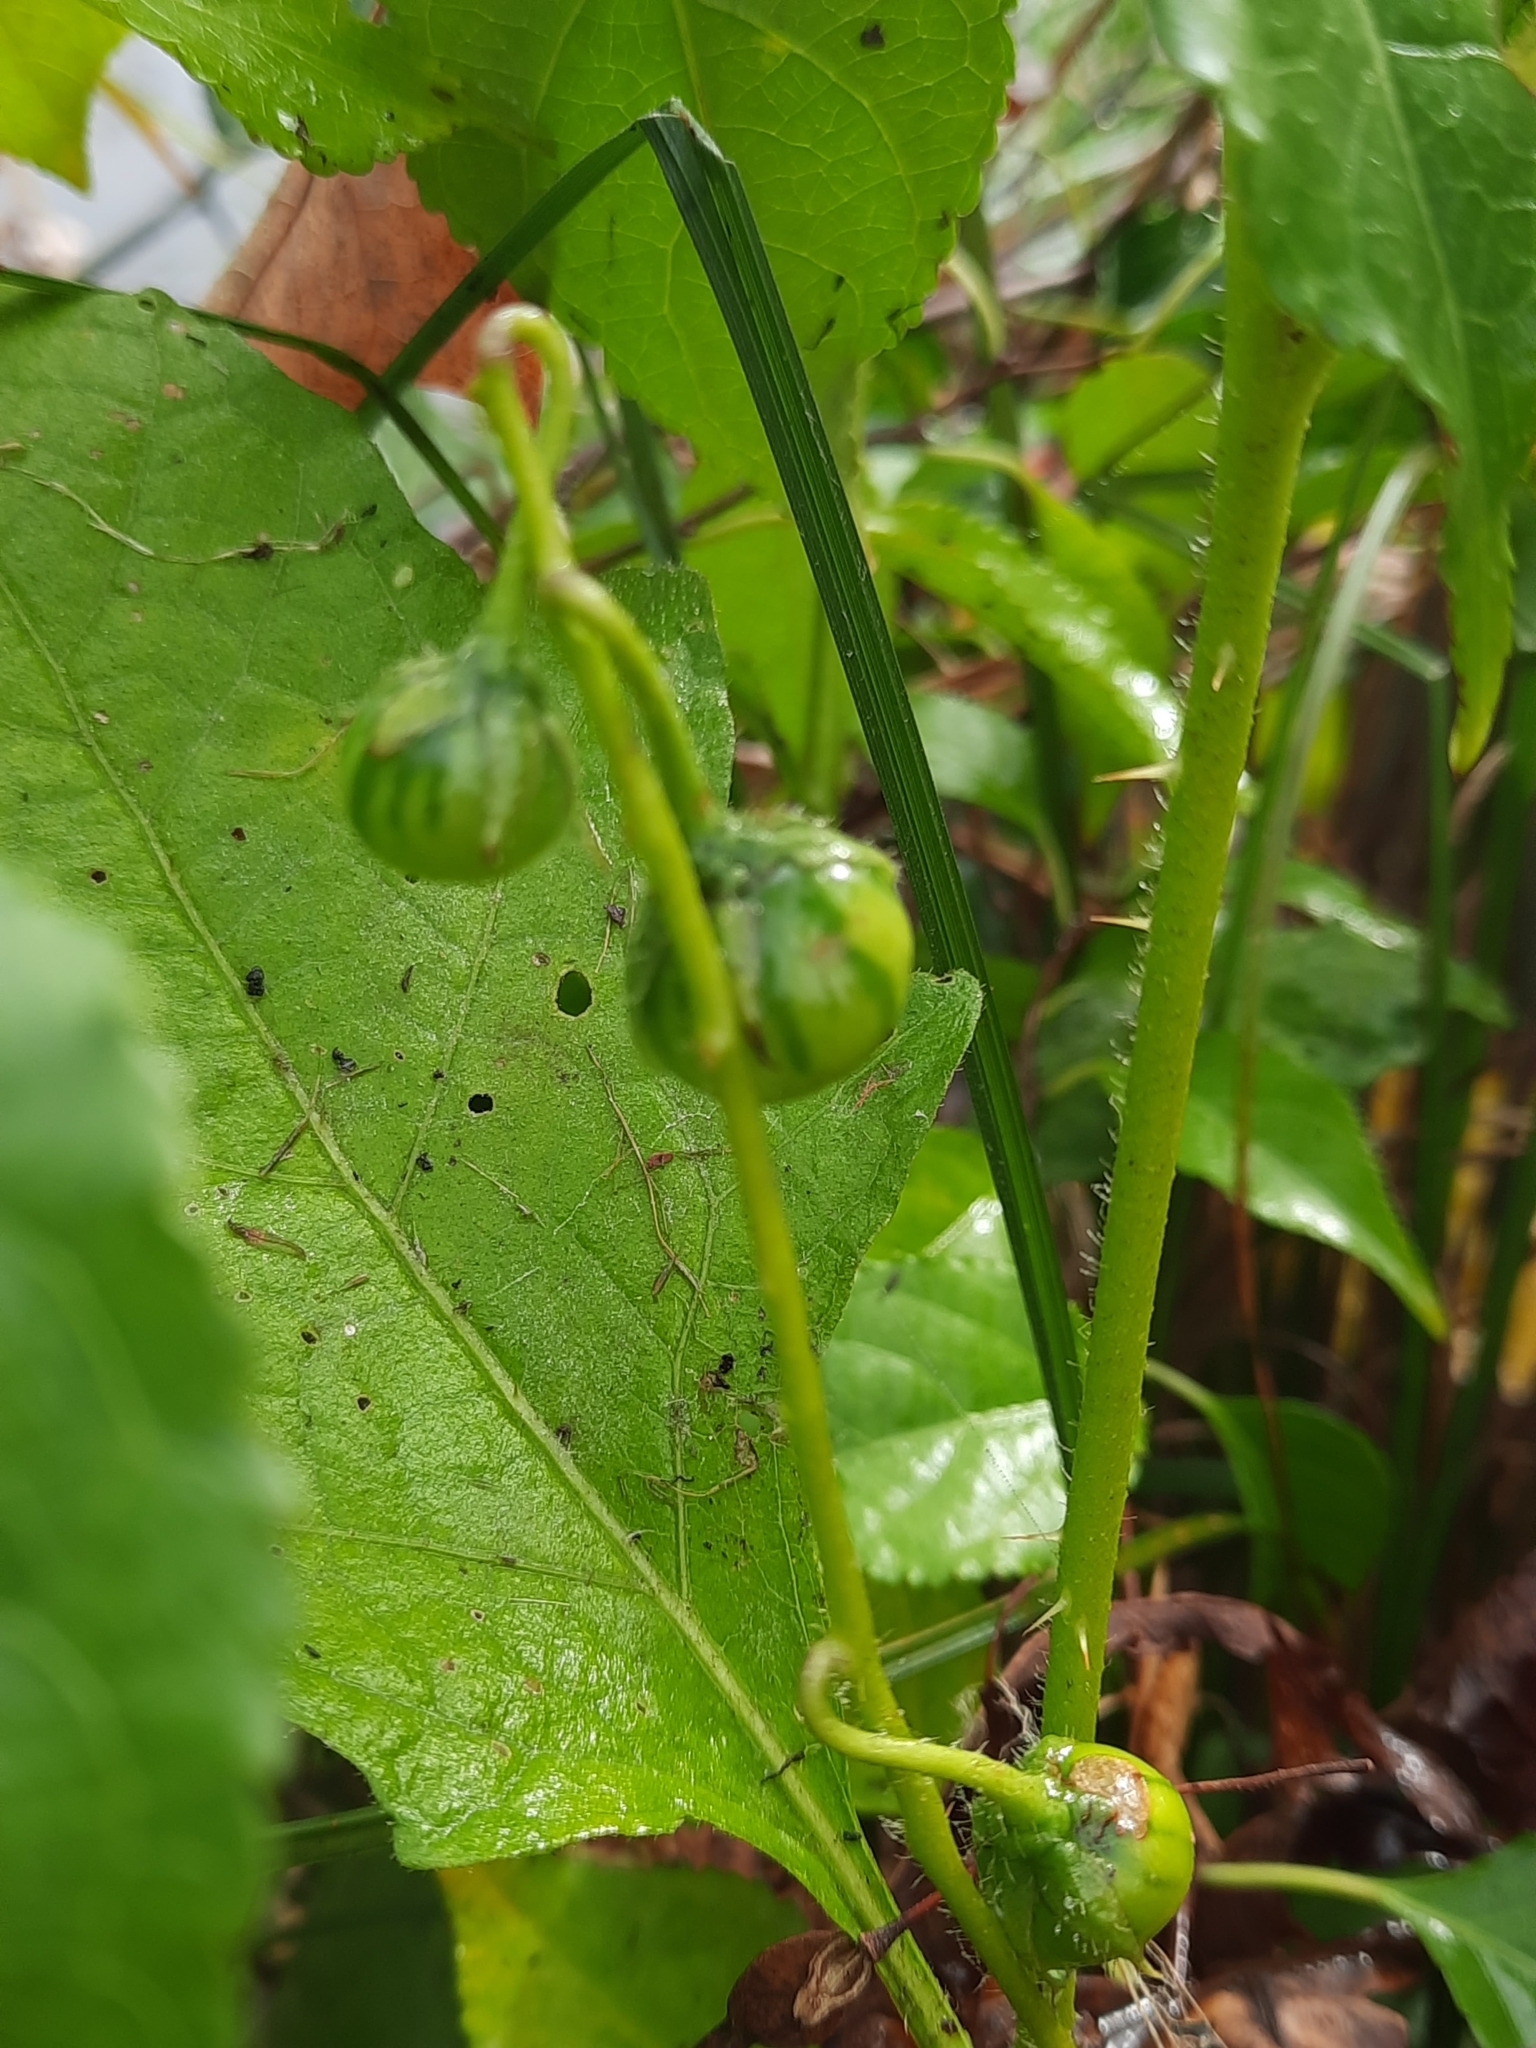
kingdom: Plantae
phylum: Tracheophyta
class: Magnoliopsida
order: Solanales
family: Solanaceae
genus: Solanum
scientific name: Solanum carolinense
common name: Horse-nettle
